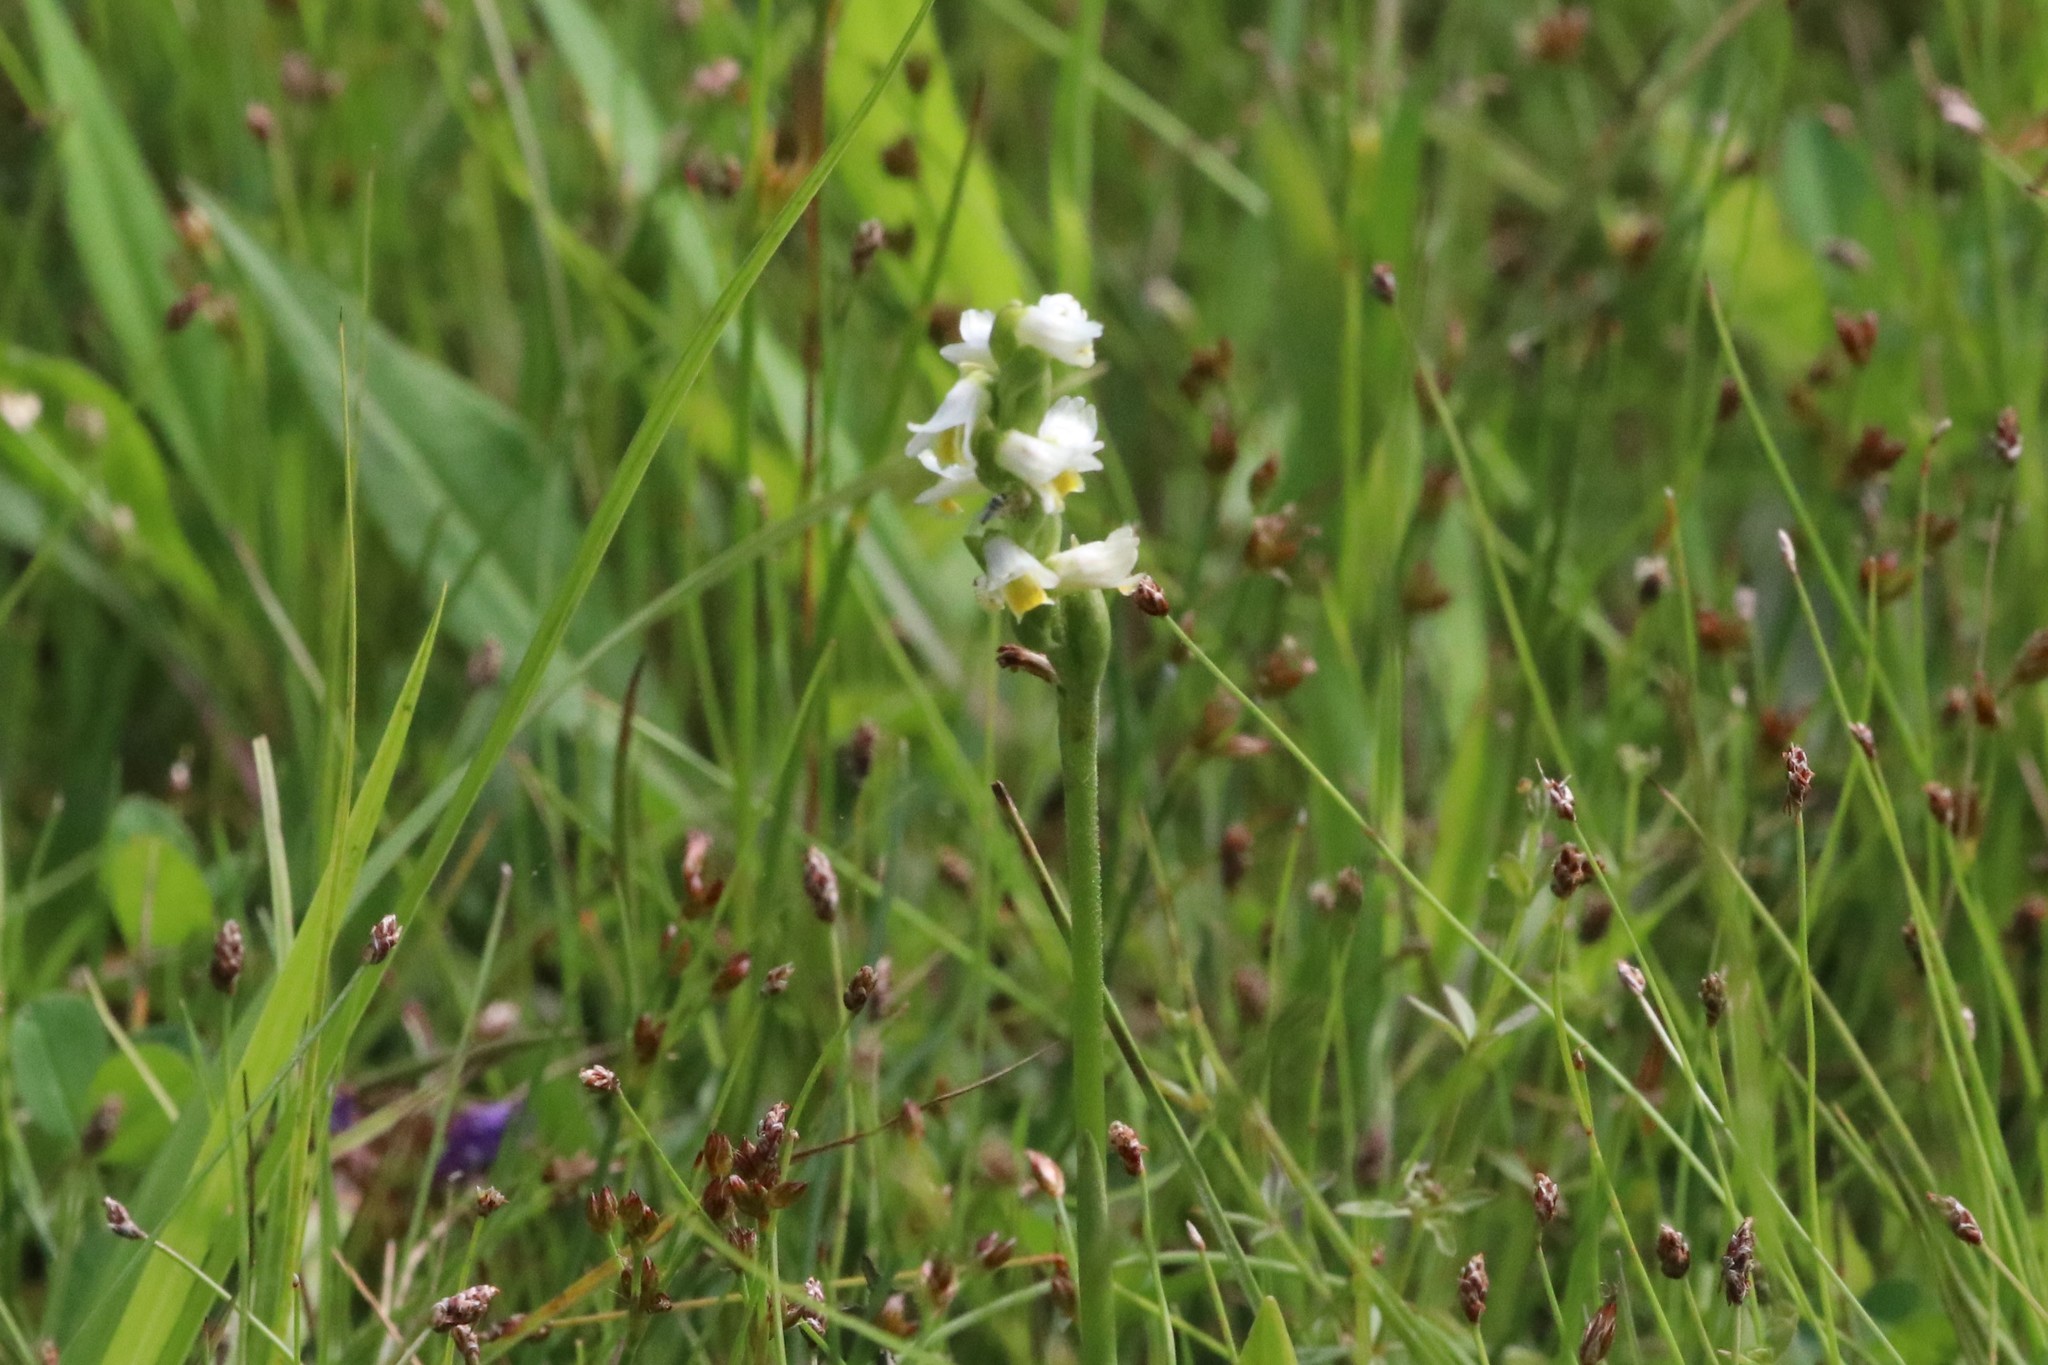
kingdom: Plantae
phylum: Tracheophyta
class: Liliopsida
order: Asparagales
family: Orchidaceae
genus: Spiranthes
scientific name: Spiranthes lucida
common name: Broad-leaved ladies'-tresses
